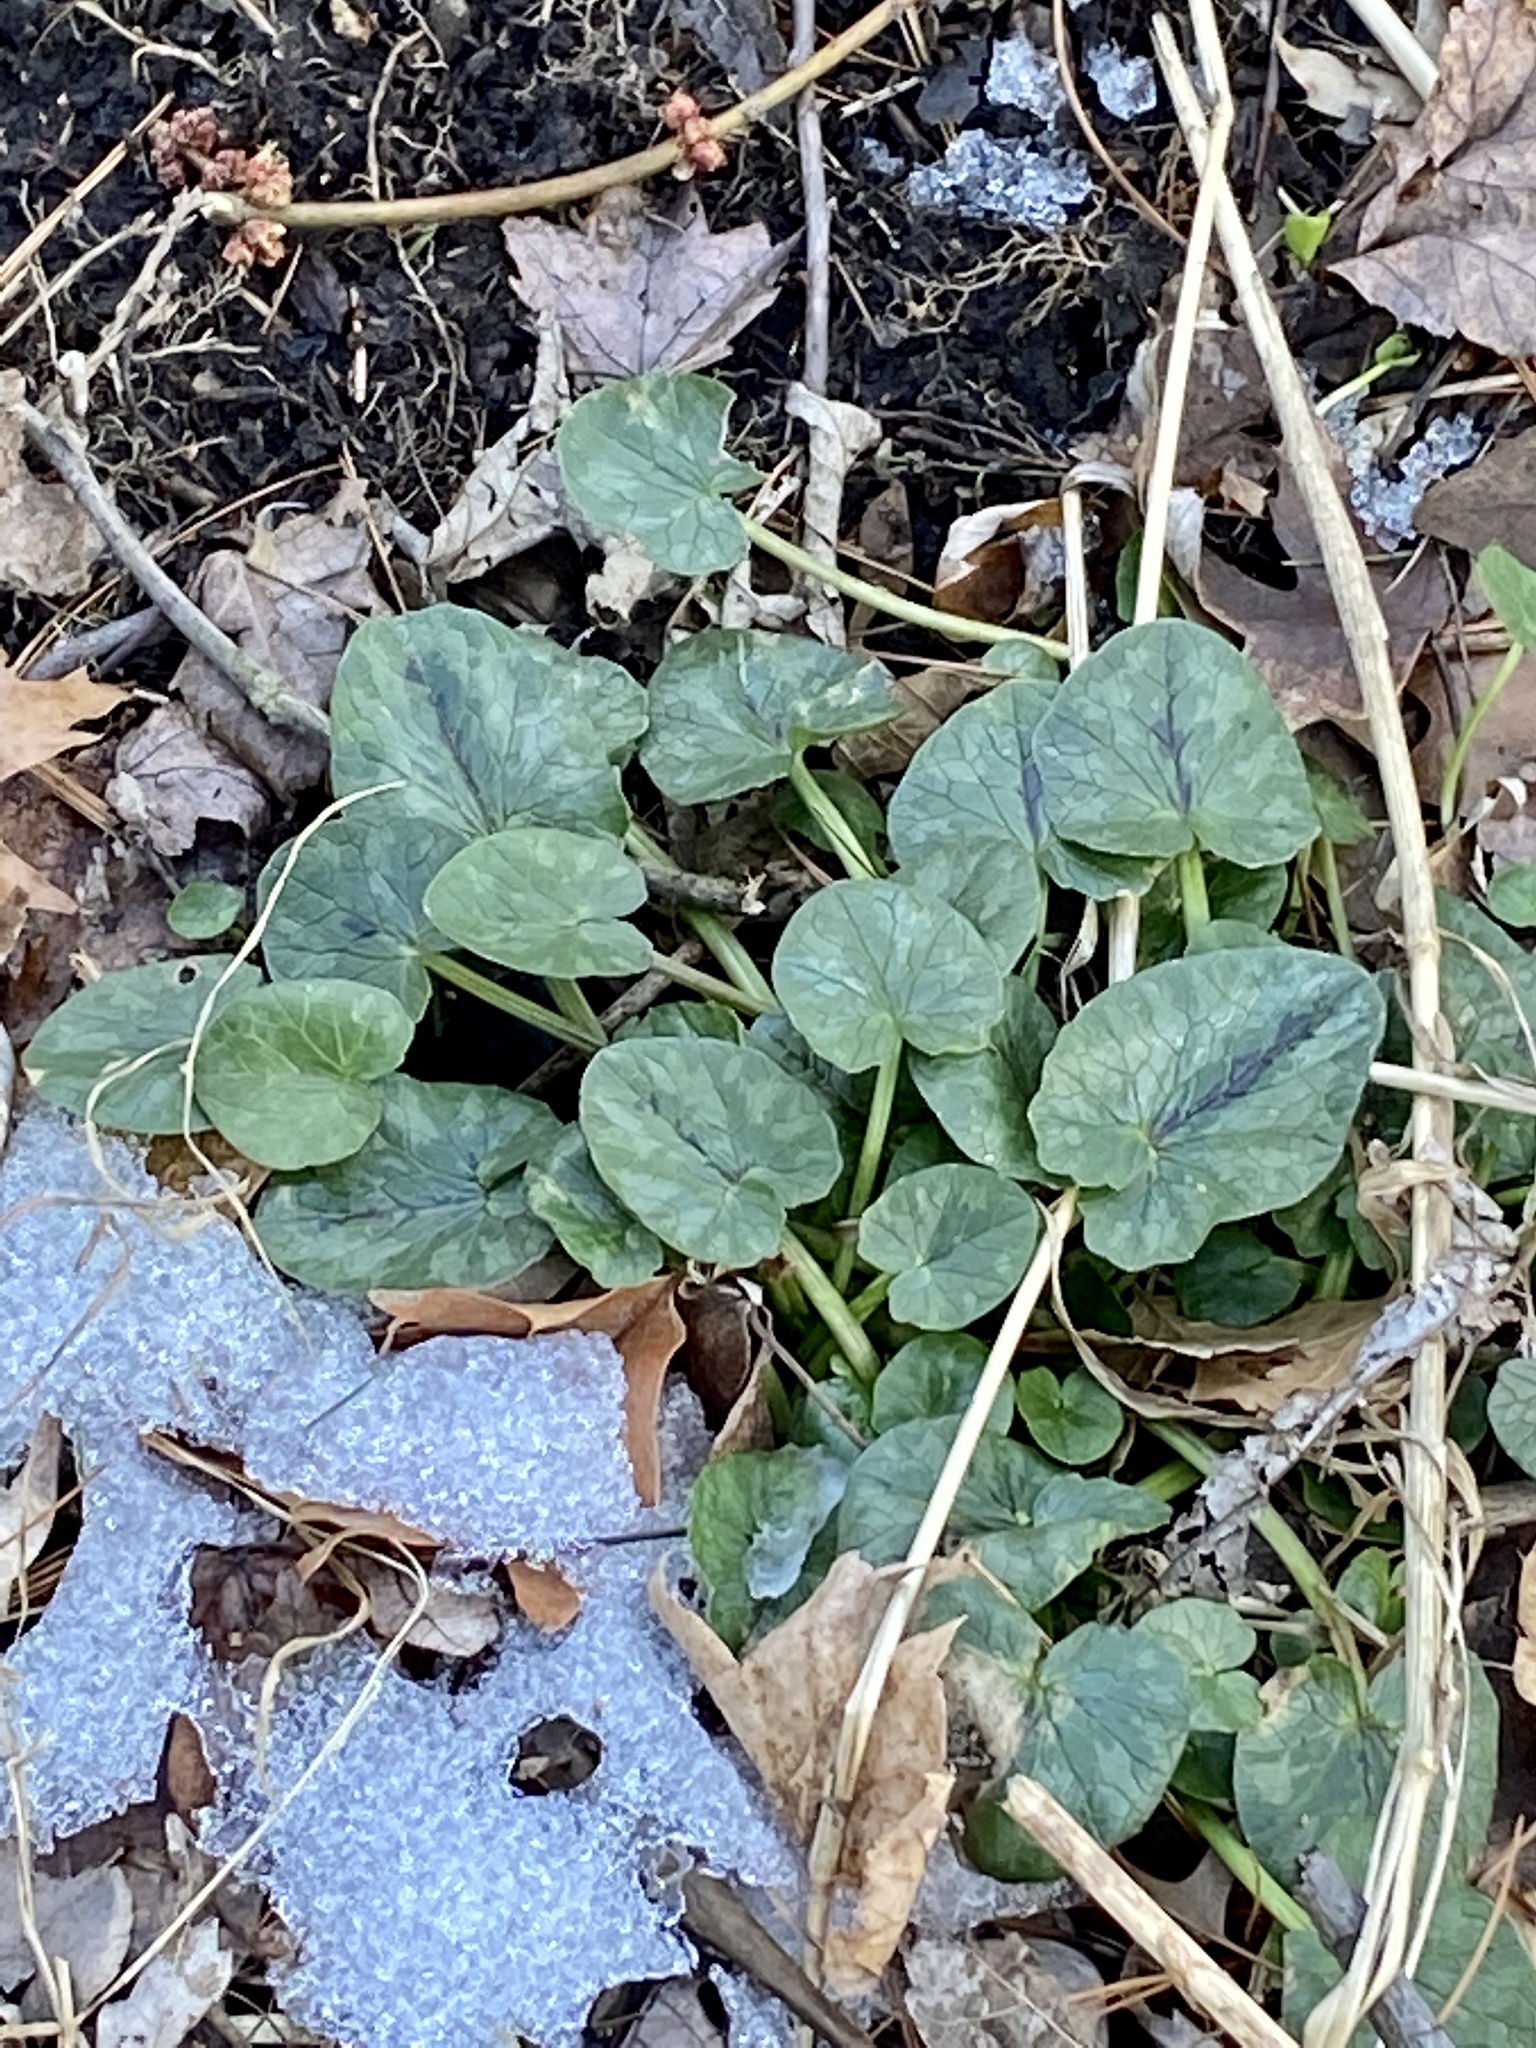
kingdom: Plantae
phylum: Tracheophyta
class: Magnoliopsida
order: Ranunculales
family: Ranunculaceae
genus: Ficaria
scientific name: Ficaria verna
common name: Lesser celandine
